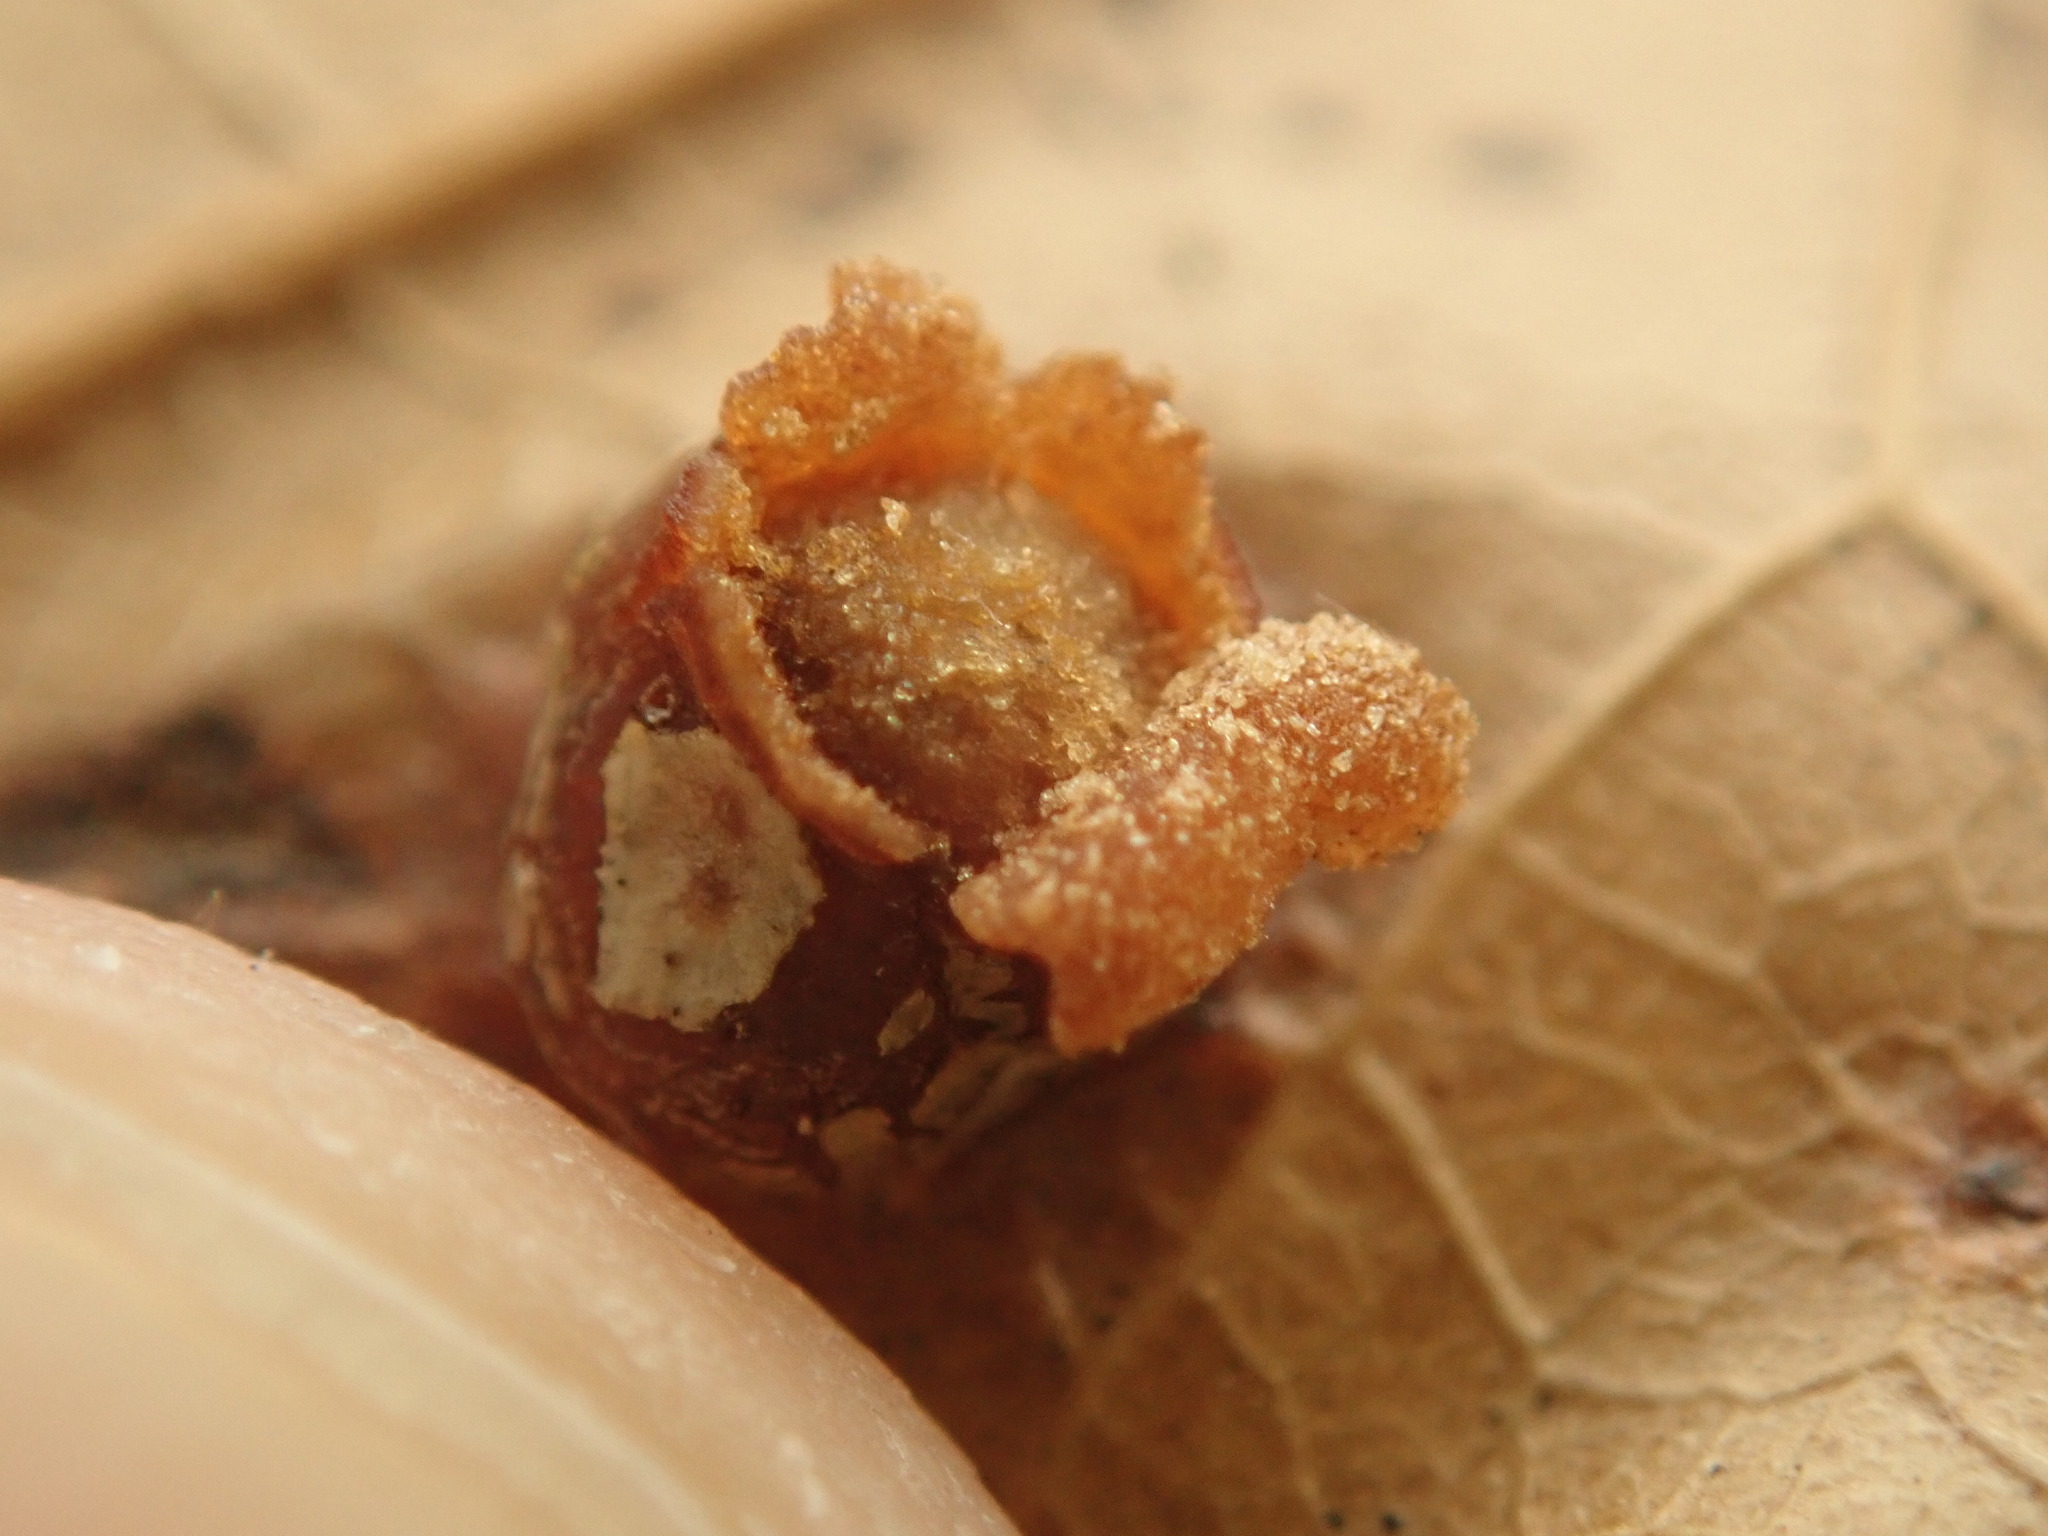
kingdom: Animalia
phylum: Arthropoda
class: Insecta
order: Diptera
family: Cecidomyiidae
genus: Polystepha
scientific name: Polystepha globosa
